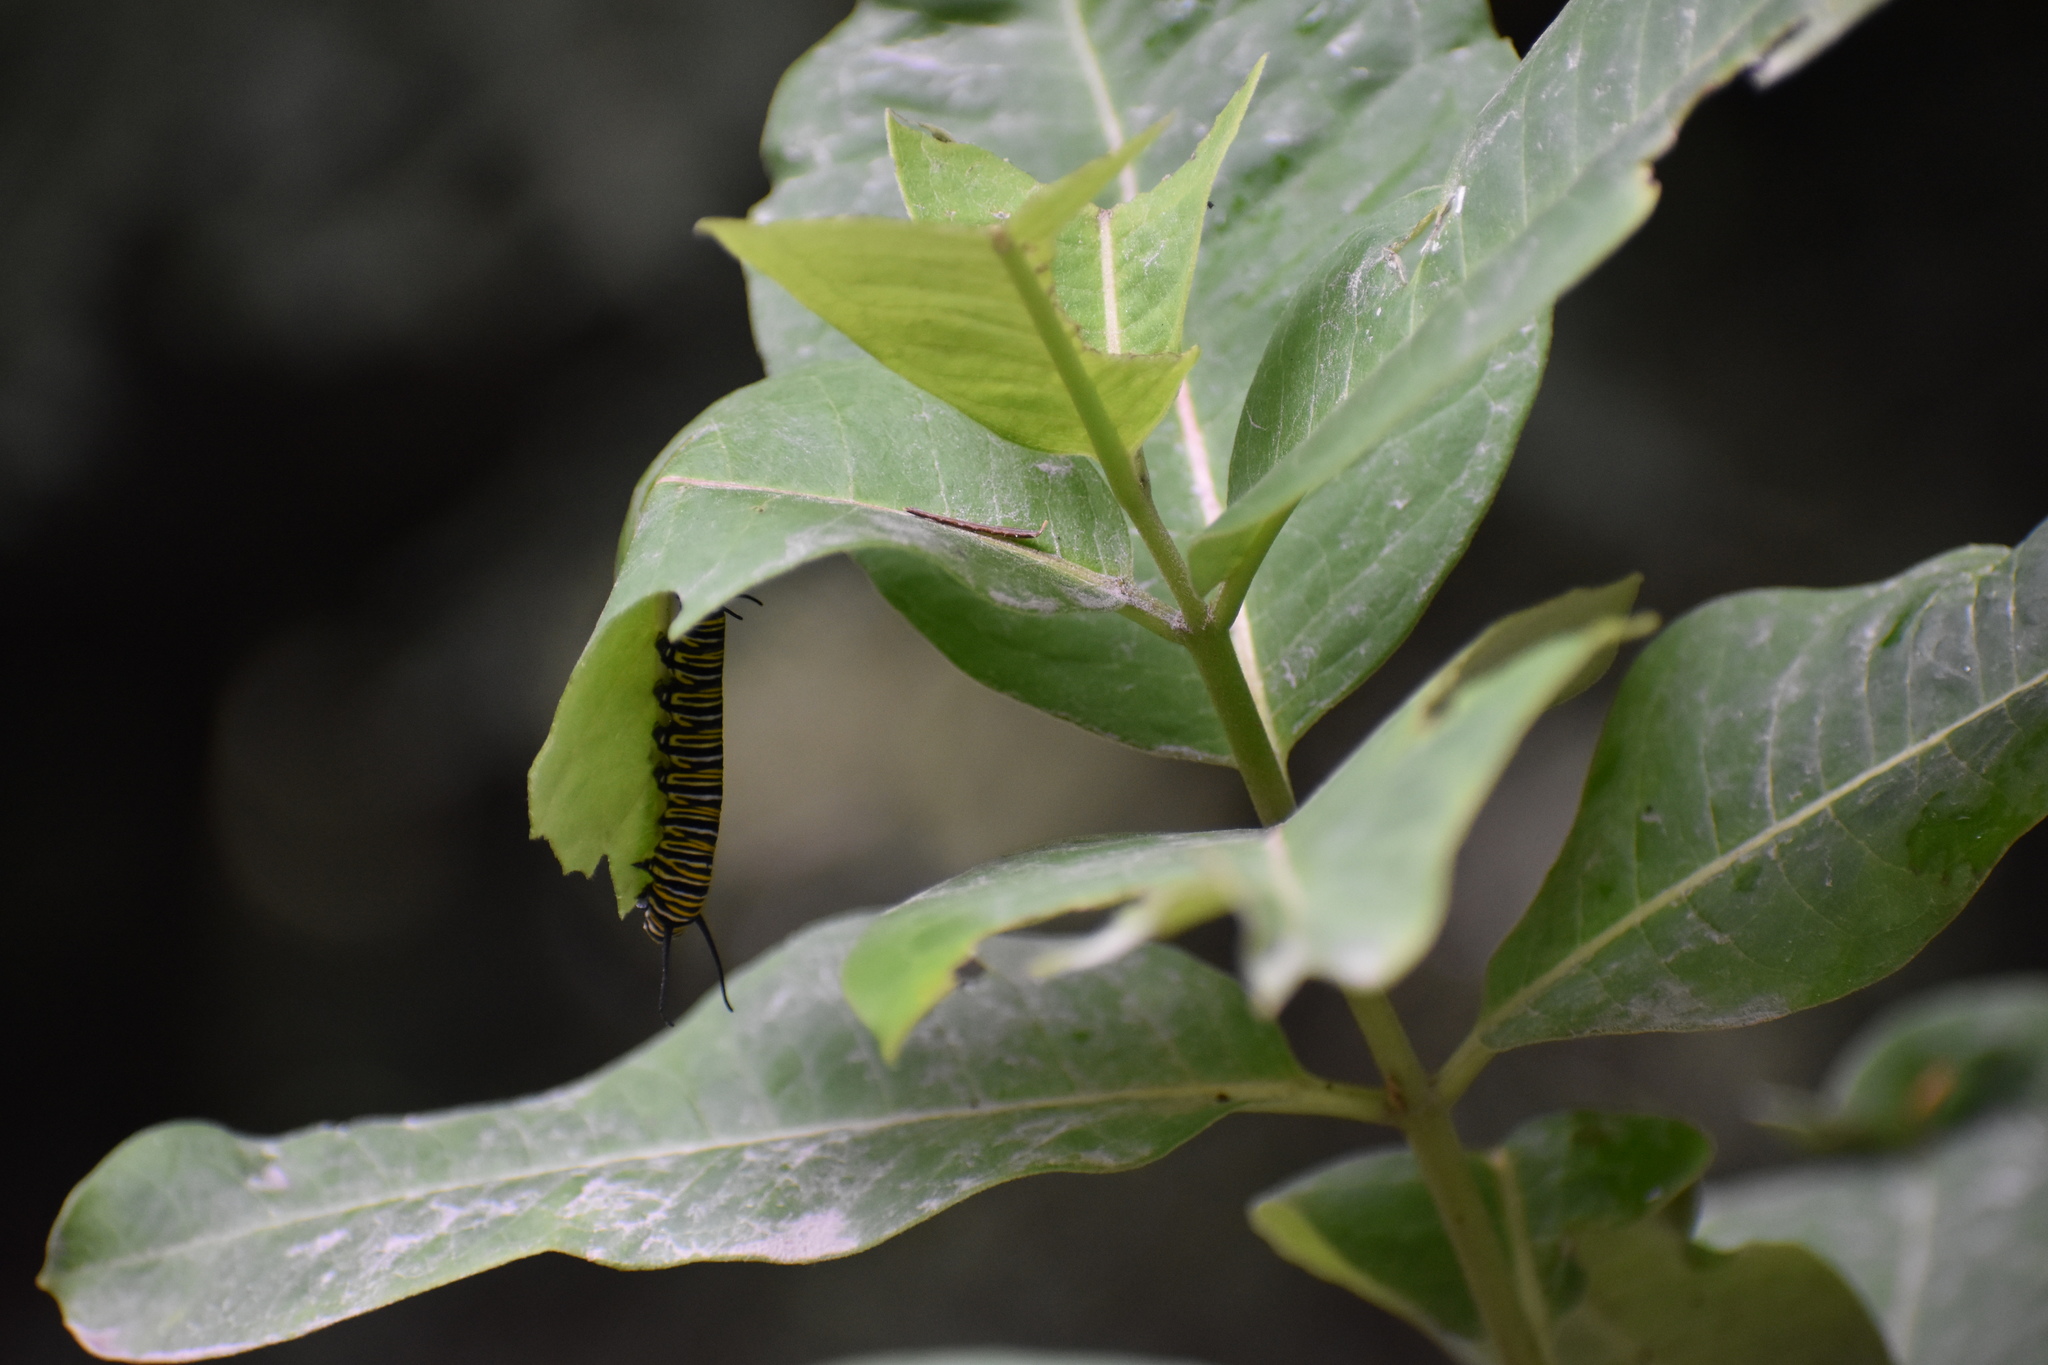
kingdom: Animalia
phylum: Arthropoda
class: Insecta
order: Lepidoptera
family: Nymphalidae
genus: Danaus
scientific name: Danaus plexippus
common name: Monarch
